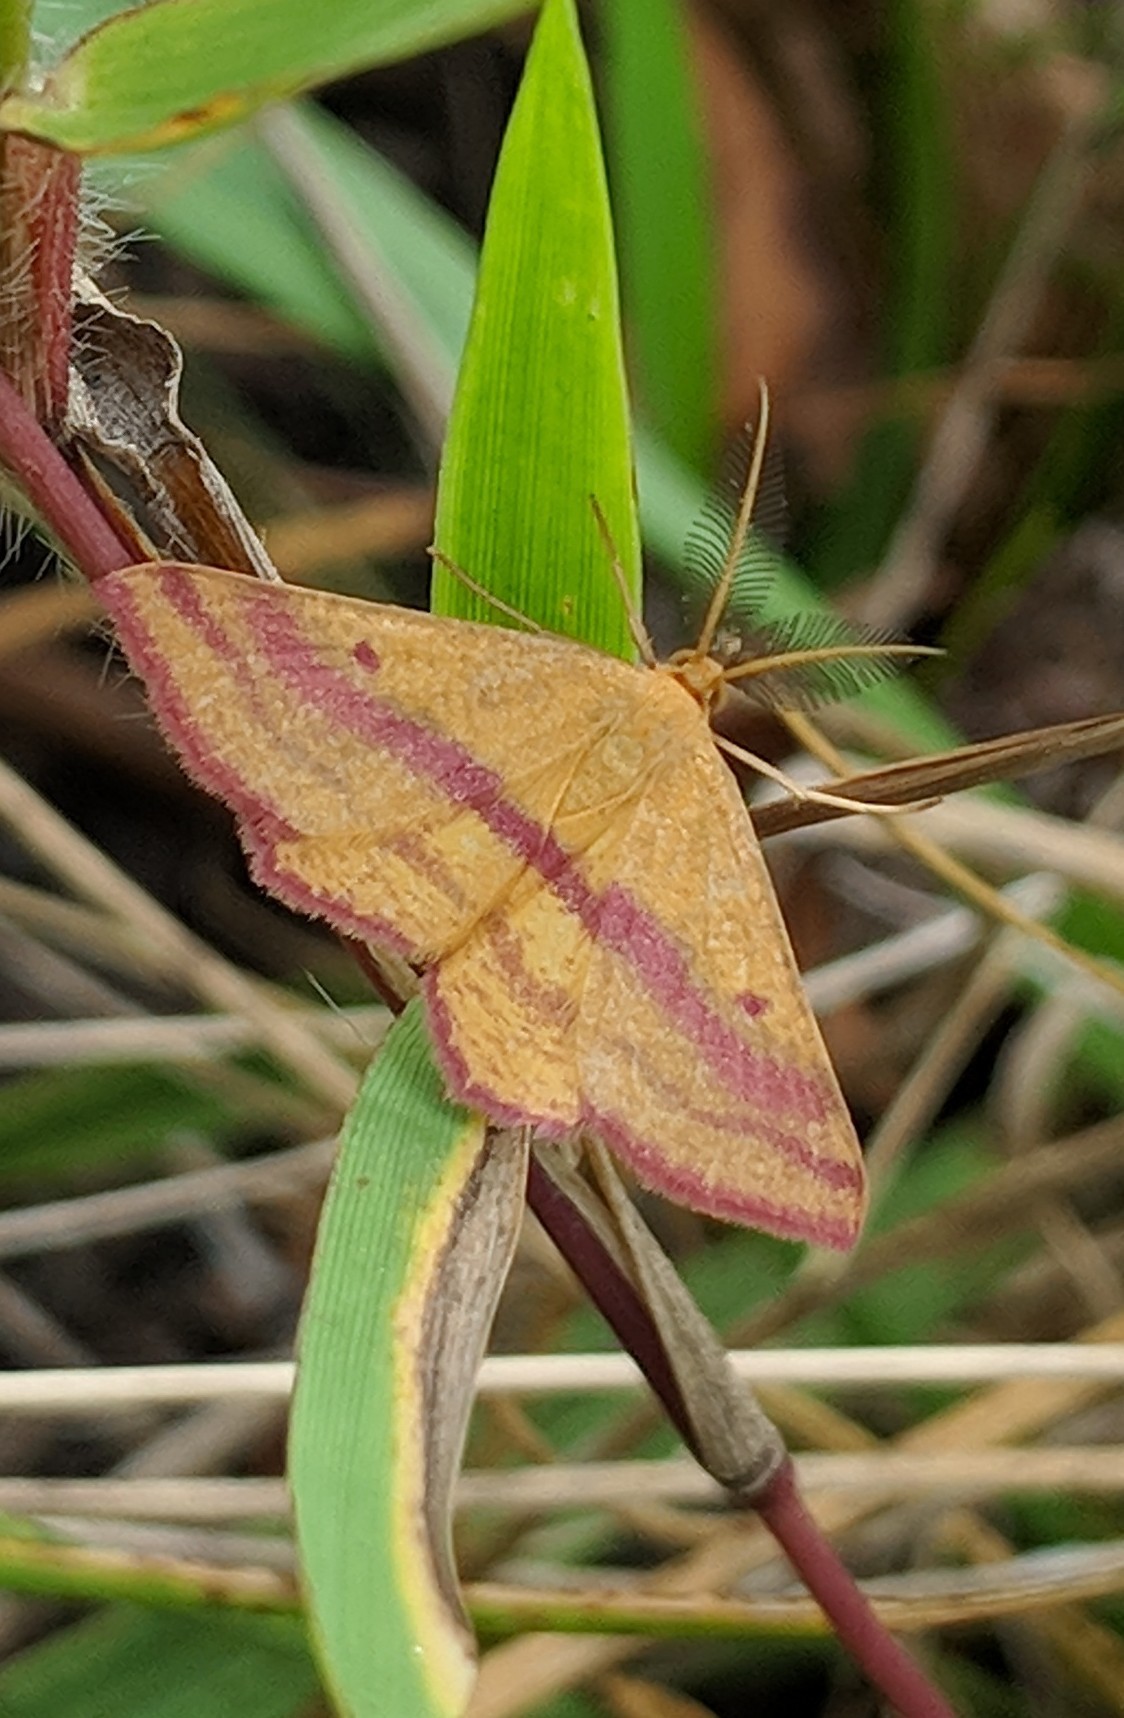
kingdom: Animalia
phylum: Arthropoda
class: Insecta
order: Lepidoptera
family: Geometridae
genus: Haematopis
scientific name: Haematopis grataria
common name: Chickweed geometer
